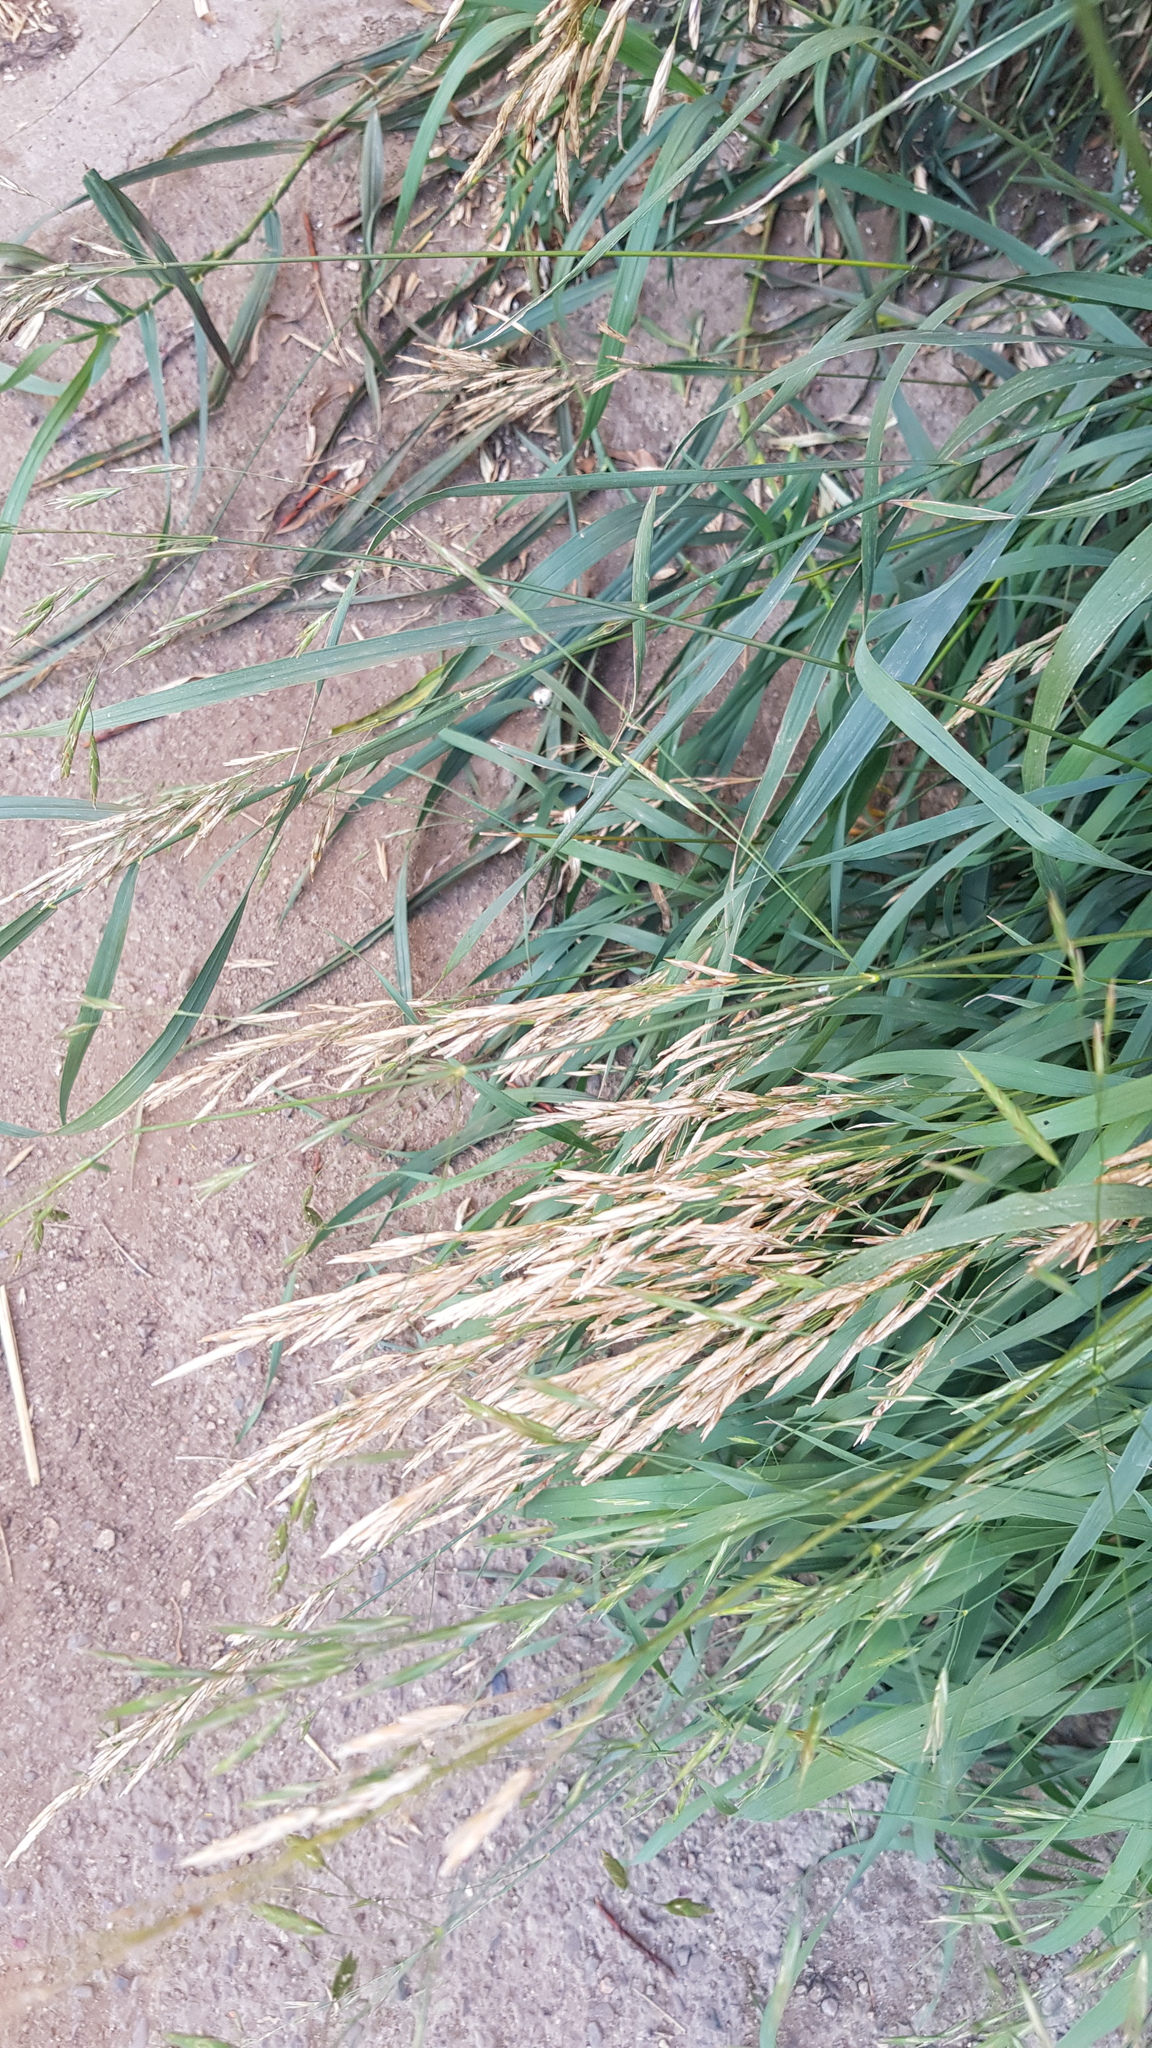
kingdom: Plantae
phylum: Tracheophyta
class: Liliopsida
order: Poales
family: Poaceae
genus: Bromus
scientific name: Bromus inermis
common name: Smooth brome
